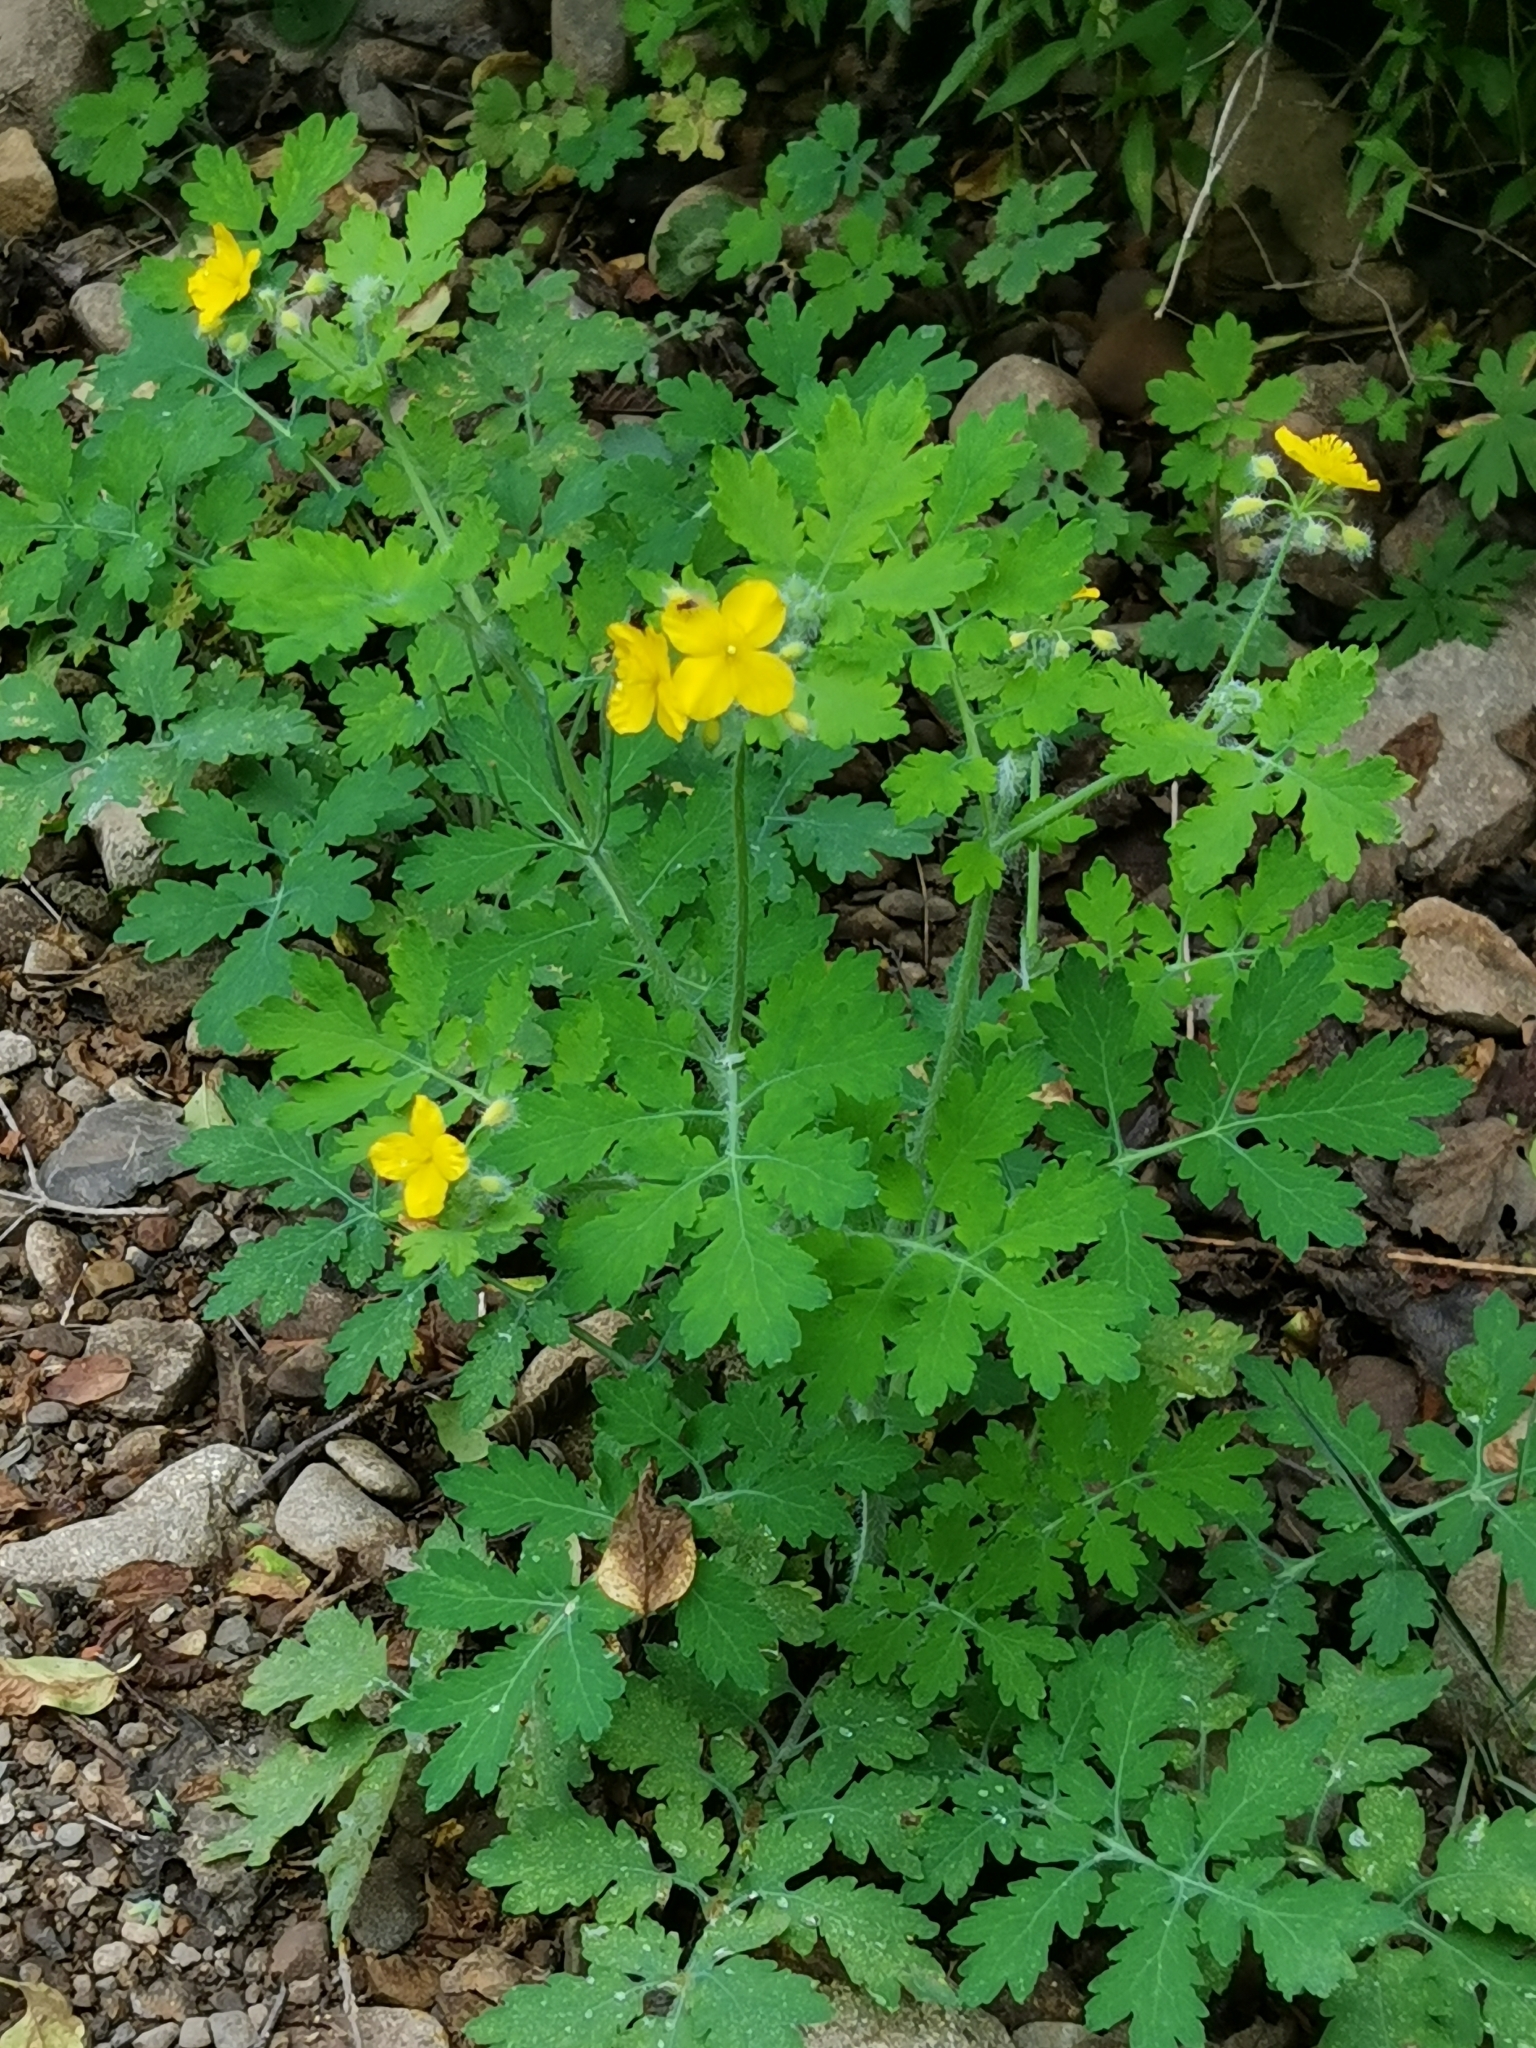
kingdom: Plantae
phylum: Tracheophyta
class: Magnoliopsida
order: Ranunculales
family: Papaveraceae
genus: Chelidonium
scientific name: Chelidonium majus
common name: Greater celandine
